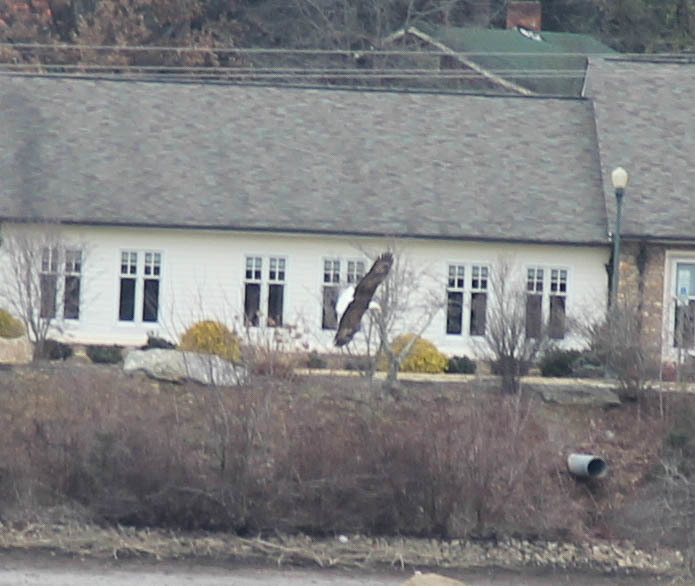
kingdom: Animalia
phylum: Chordata
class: Aves
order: Accipitriformes
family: Accipitridae
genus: Haliaeetus
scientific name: Haliaeetus leucocephalus
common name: Bald eagle
